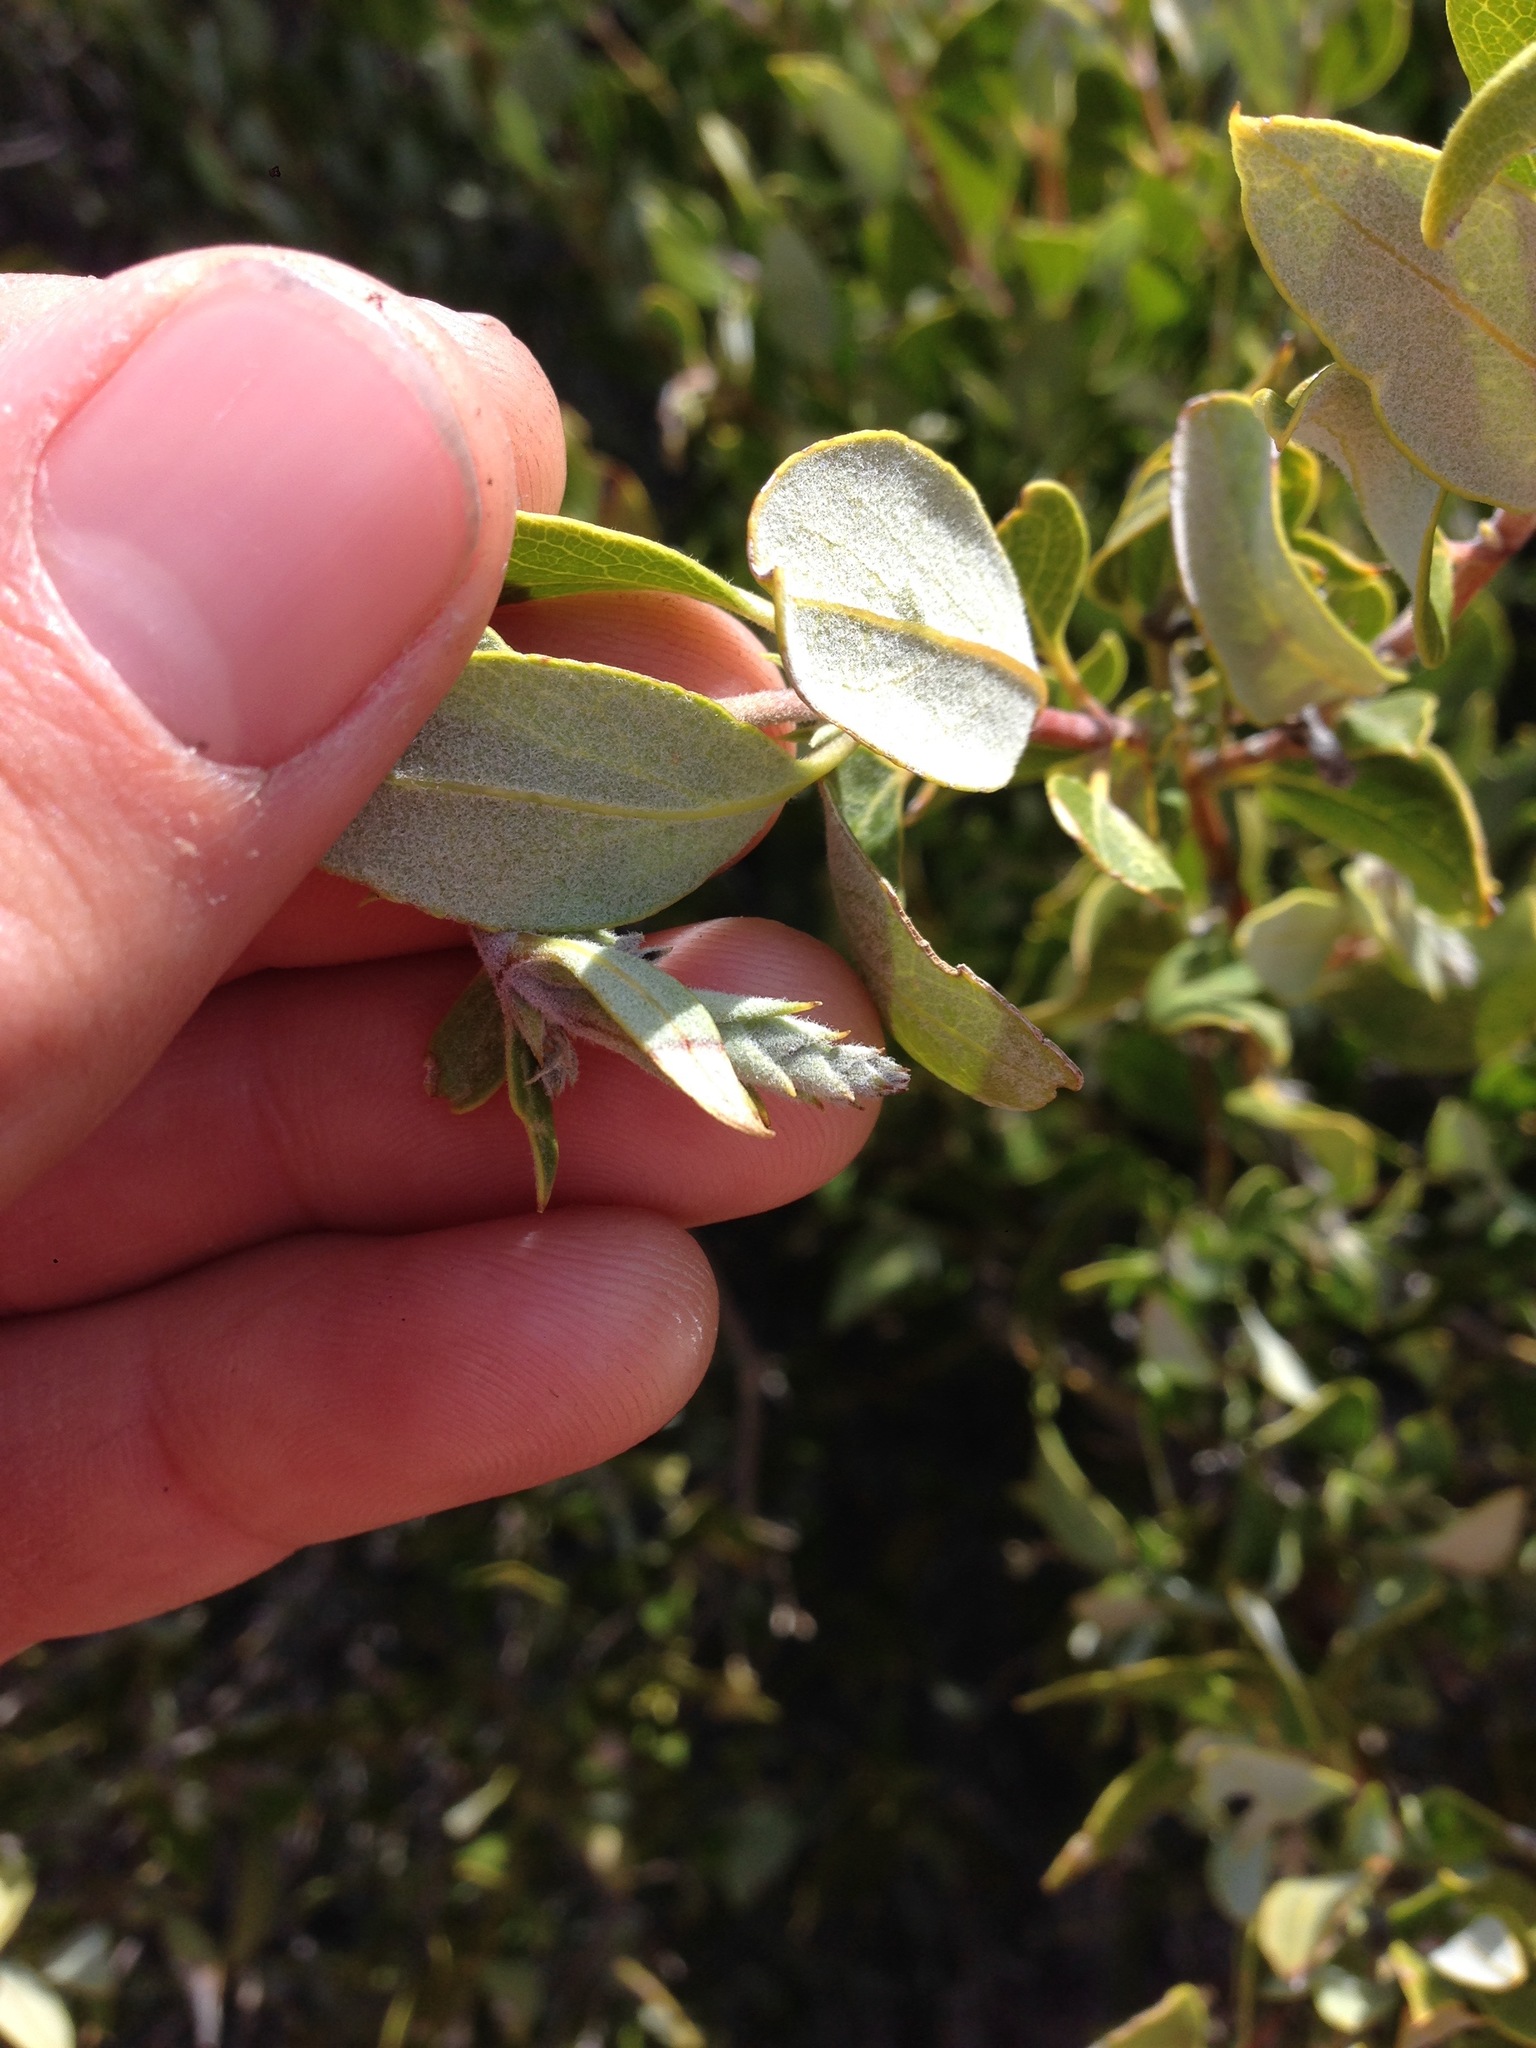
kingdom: Plantae
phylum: Tracheophyta
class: Magnoliopsida
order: Garryales
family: Garryaceae
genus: Garrya
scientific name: Garrya veatchii
